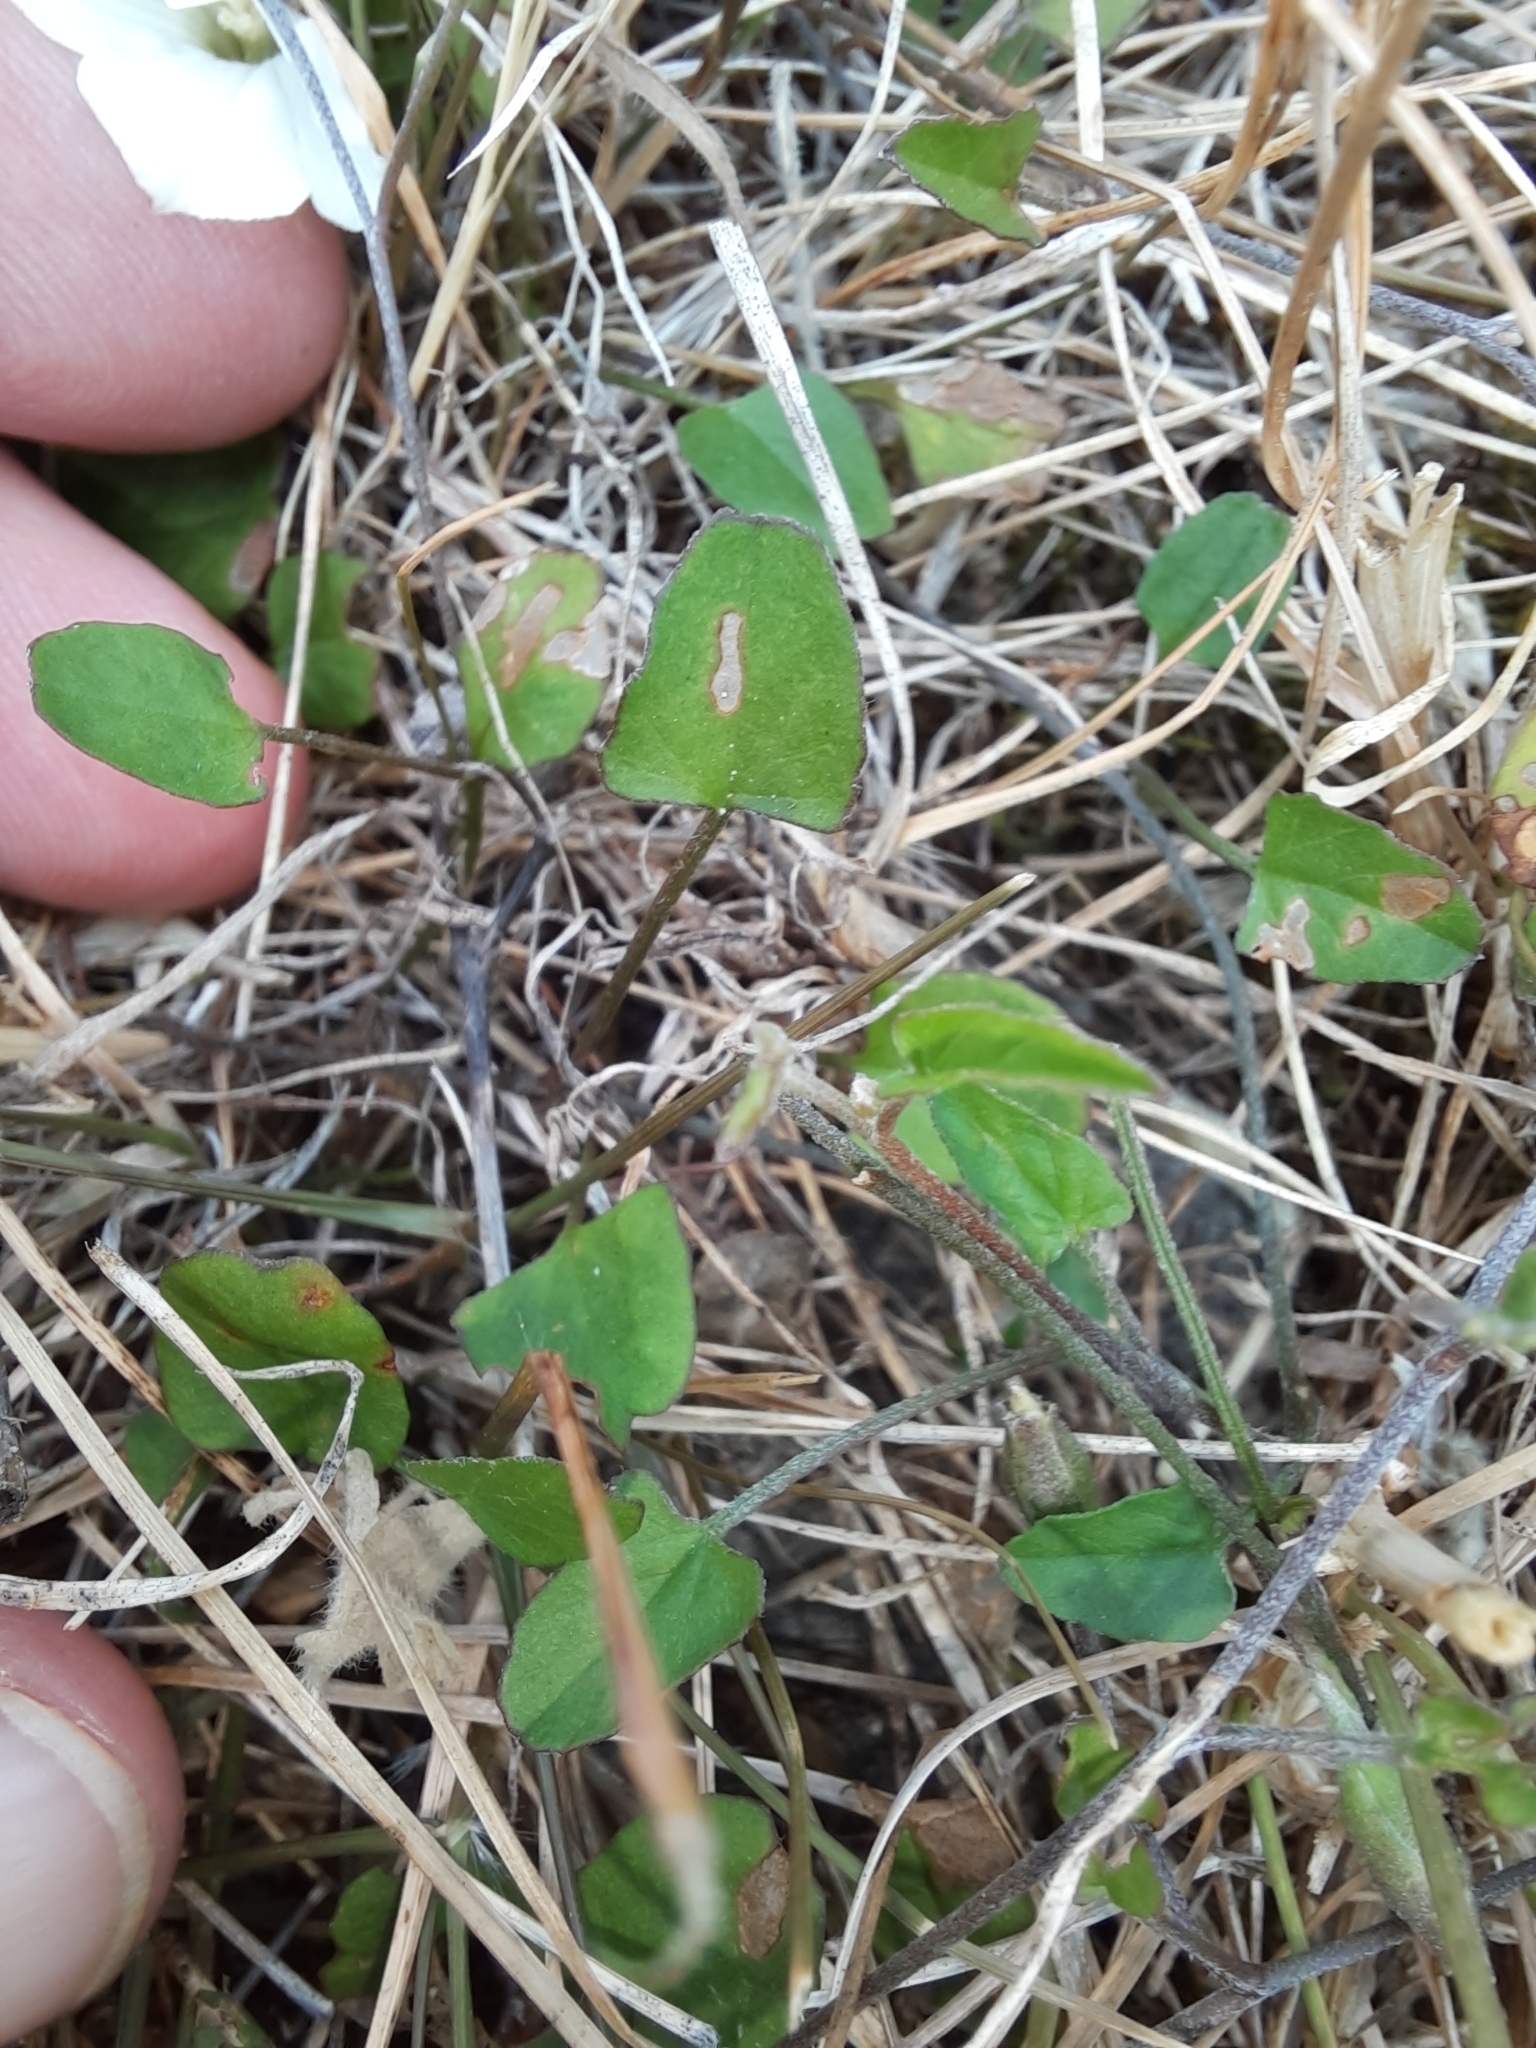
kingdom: Plantae
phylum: Tracheophyta
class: Magnoliopsida
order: Solanales
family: Convolvulaceae
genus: Convolvulus
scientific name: Convolvulus waitaha
